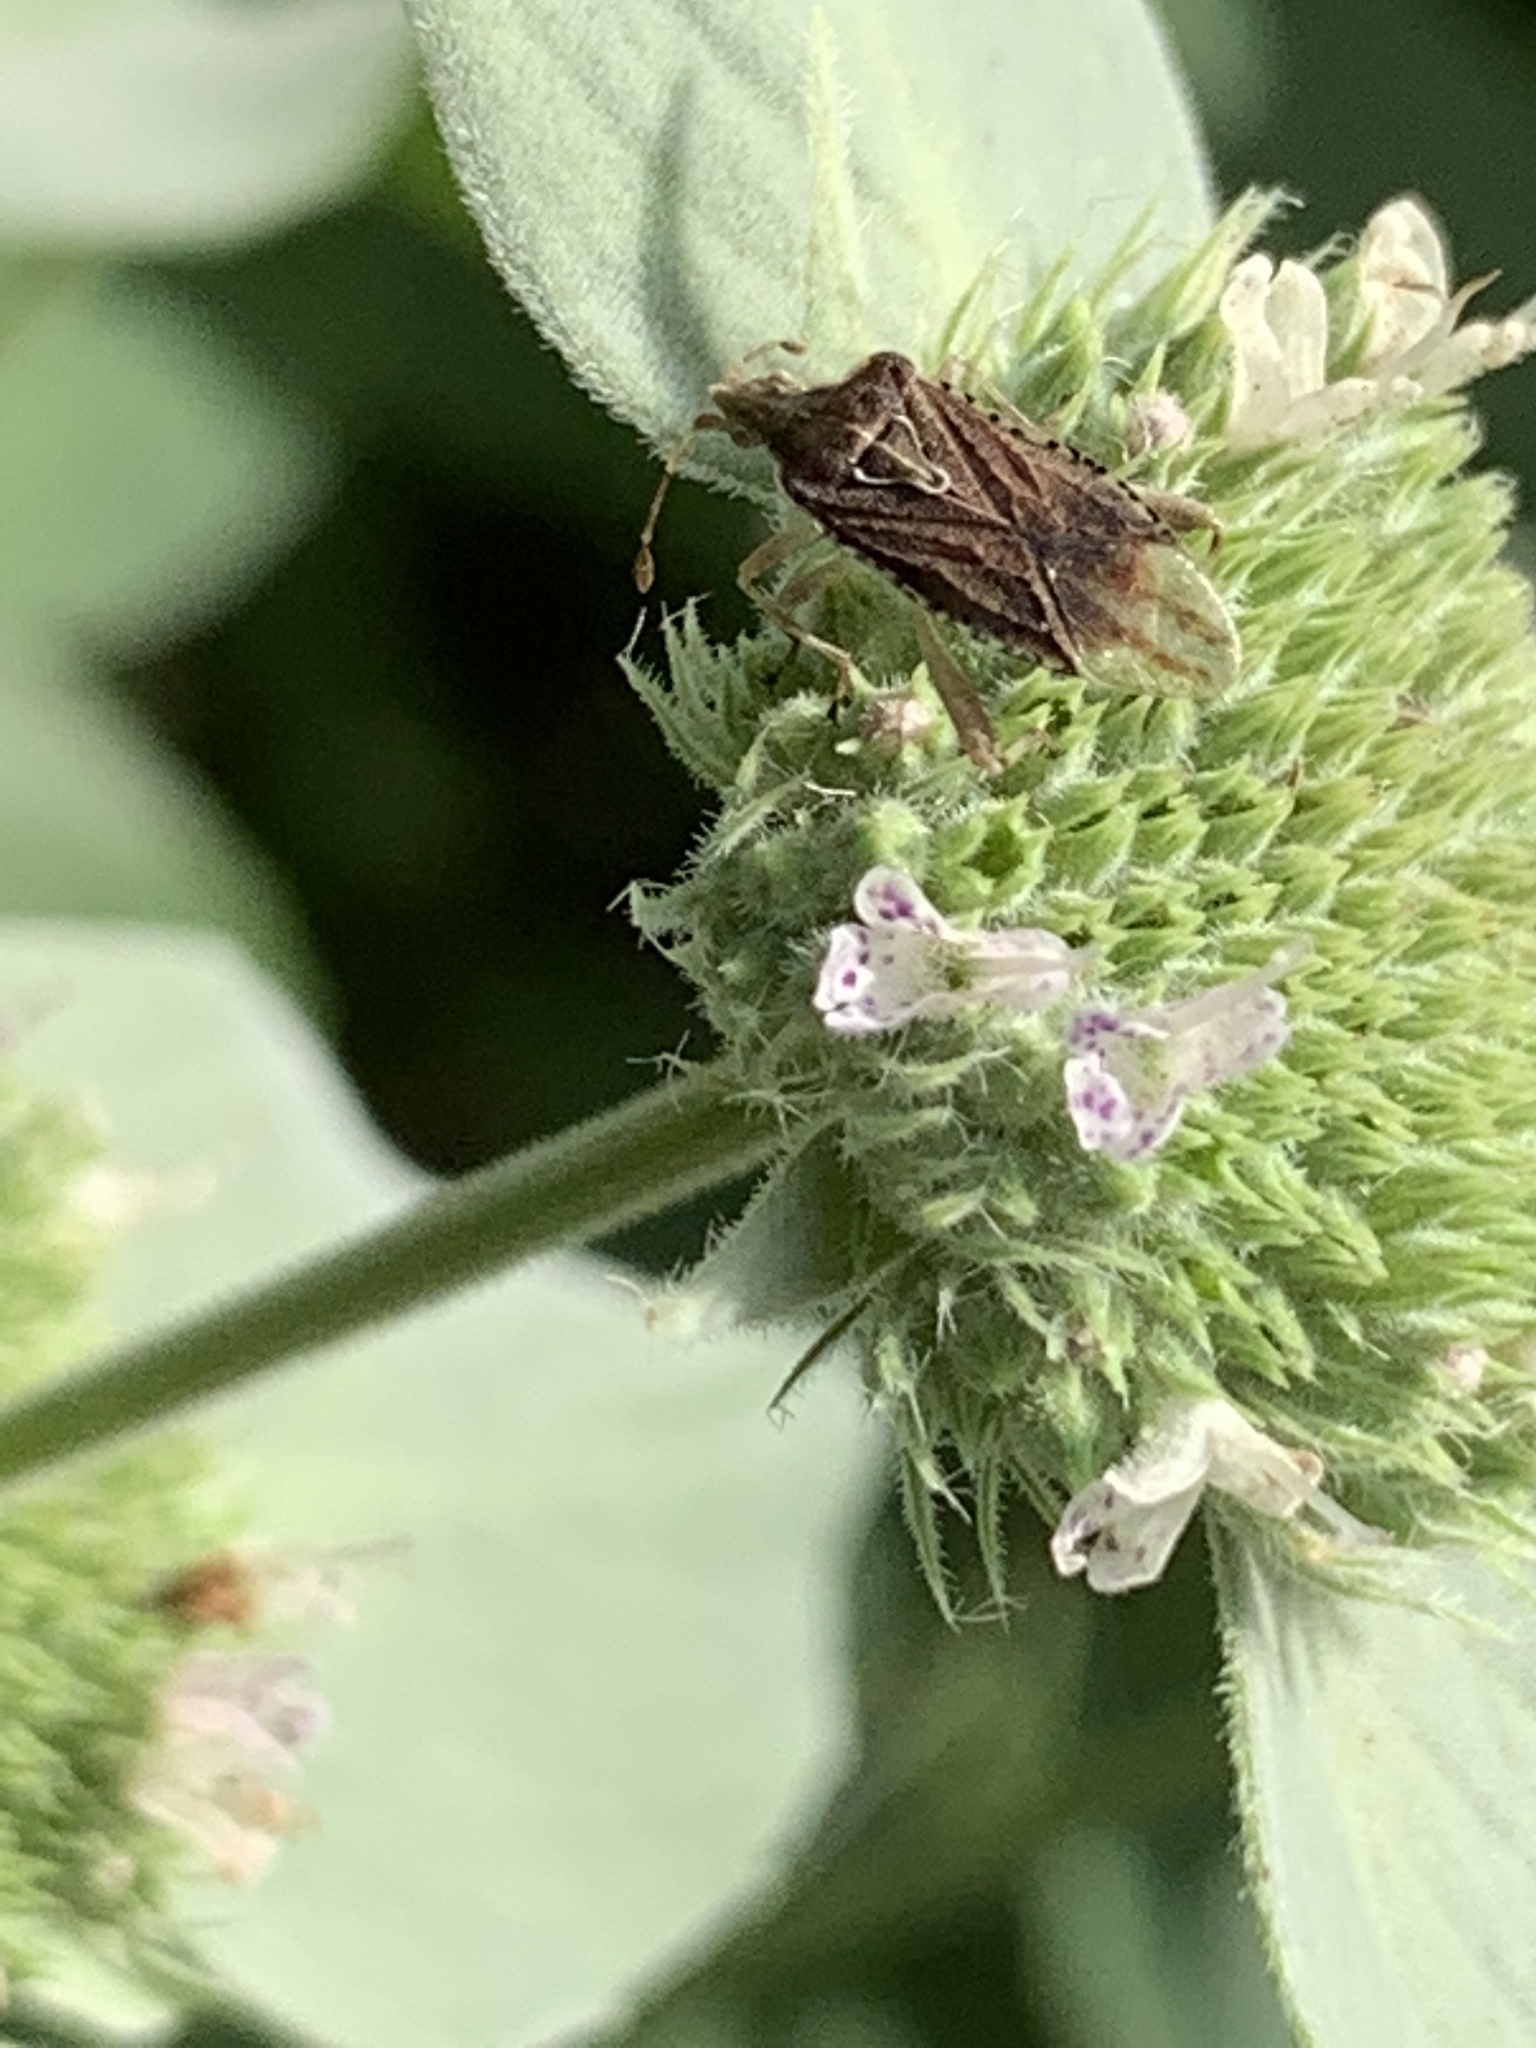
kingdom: Animalia
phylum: Arthropoda
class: Insecta
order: Hemiptera
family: Rhopalidae
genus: Harmostes
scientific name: Harmostes fraterculus
